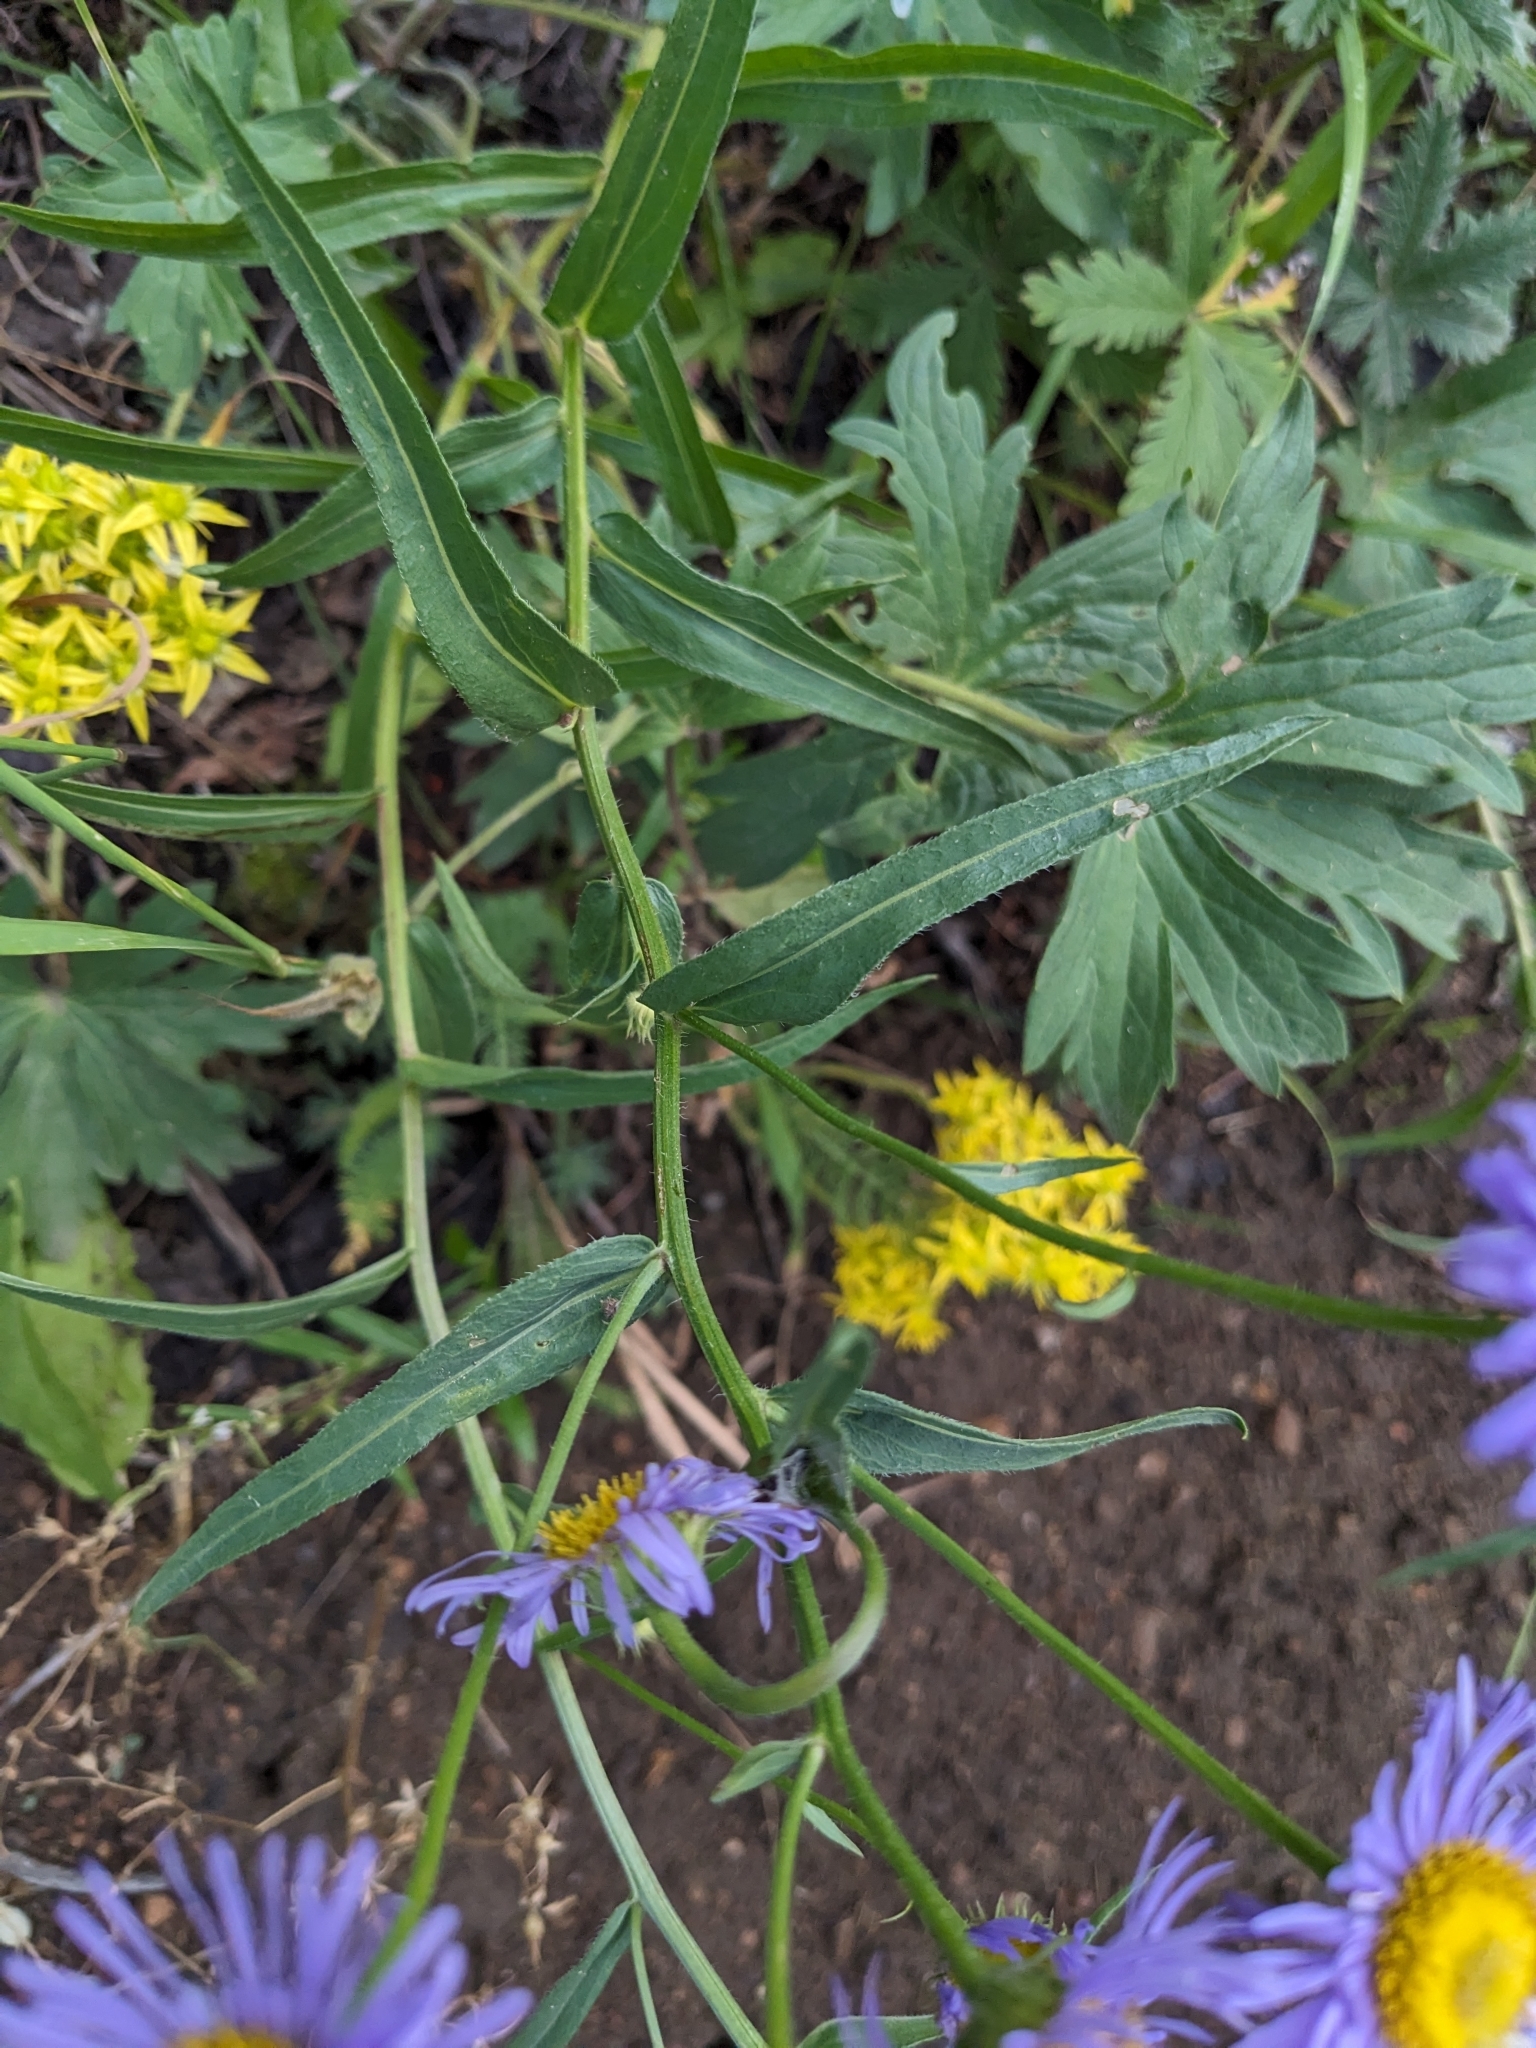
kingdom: Plantae
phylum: Tracheophyta
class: Magnoliopsida
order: Asterales
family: Asteraceae
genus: Erigeron
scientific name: Erigeron speciosus
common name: Aspen fleabane
